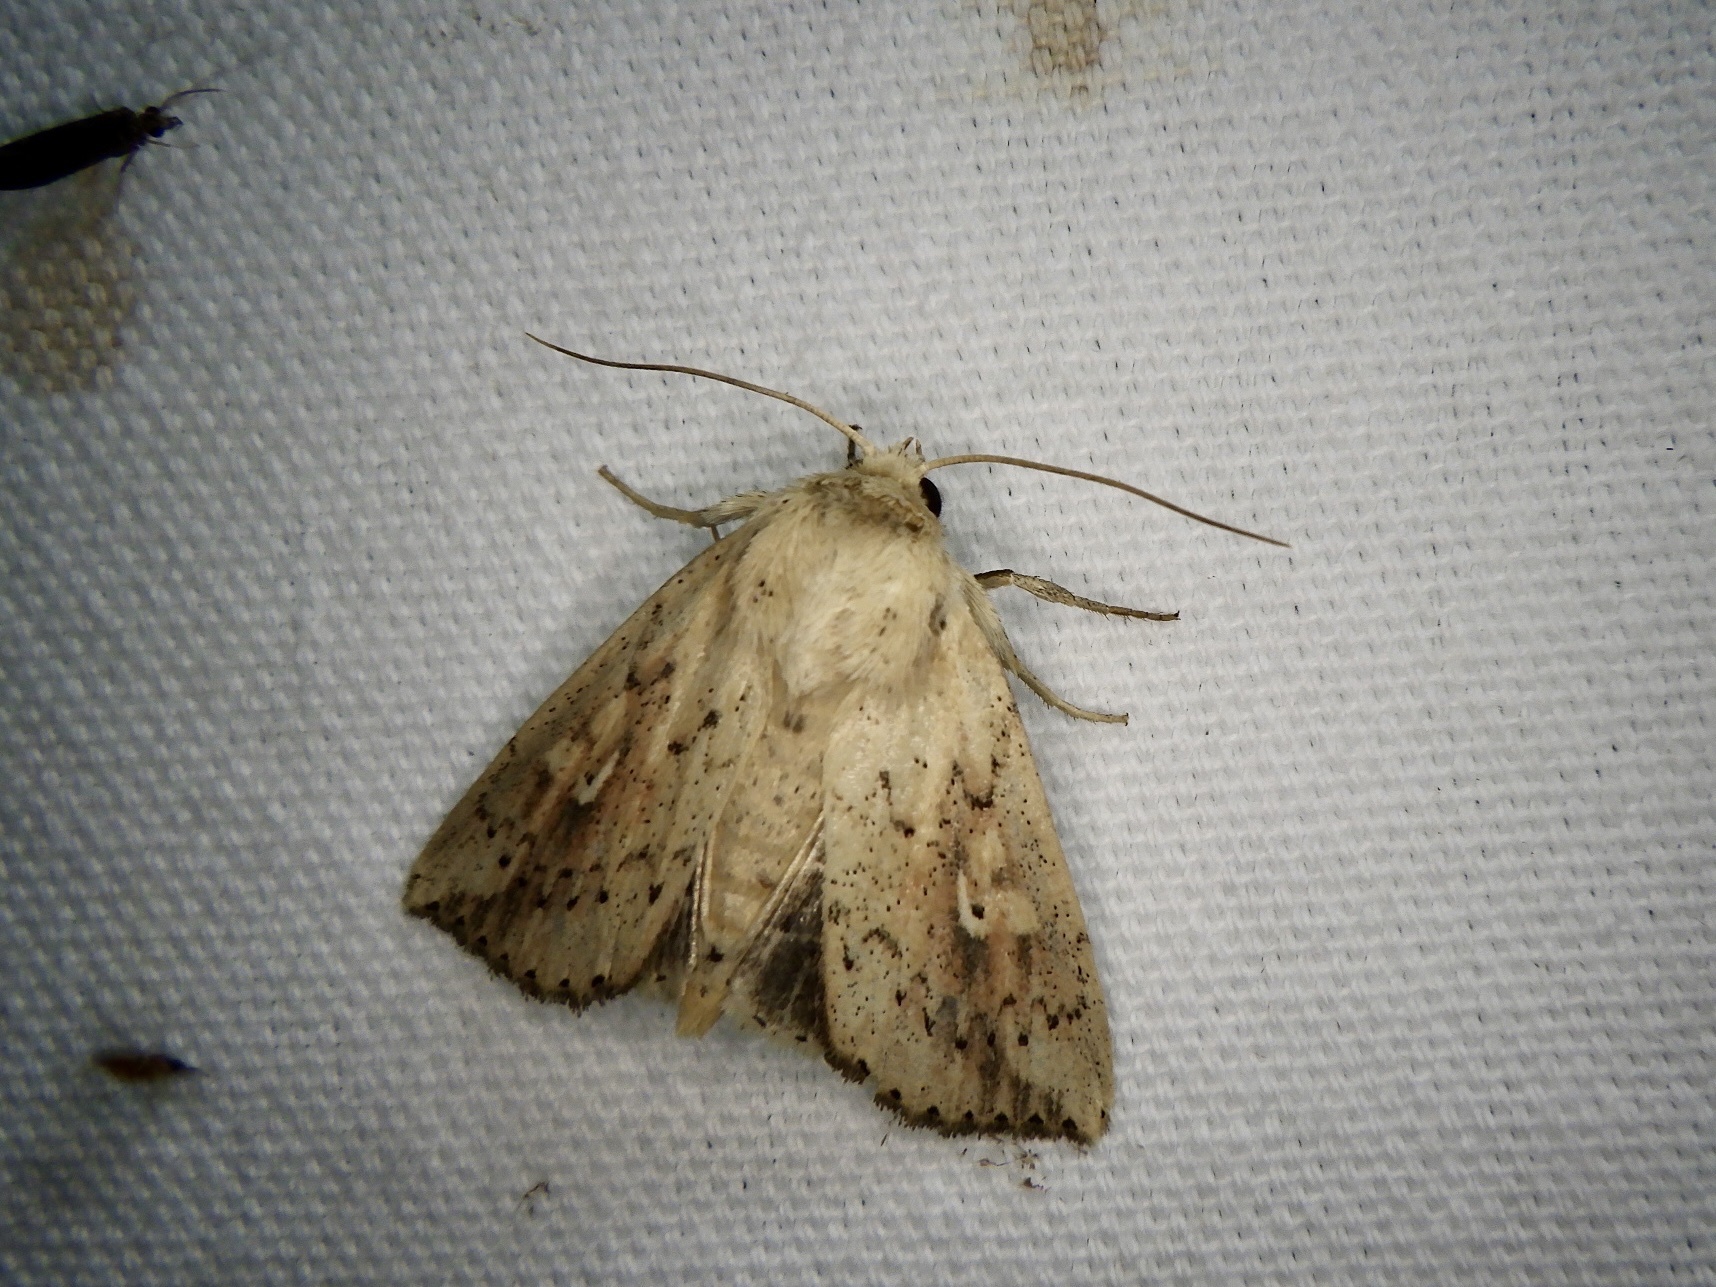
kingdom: Animalia
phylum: Arthropoda
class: Insecta
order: Lepidoptera
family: Noctuidae
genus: Mythimna
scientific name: Mythimna flavostigma
